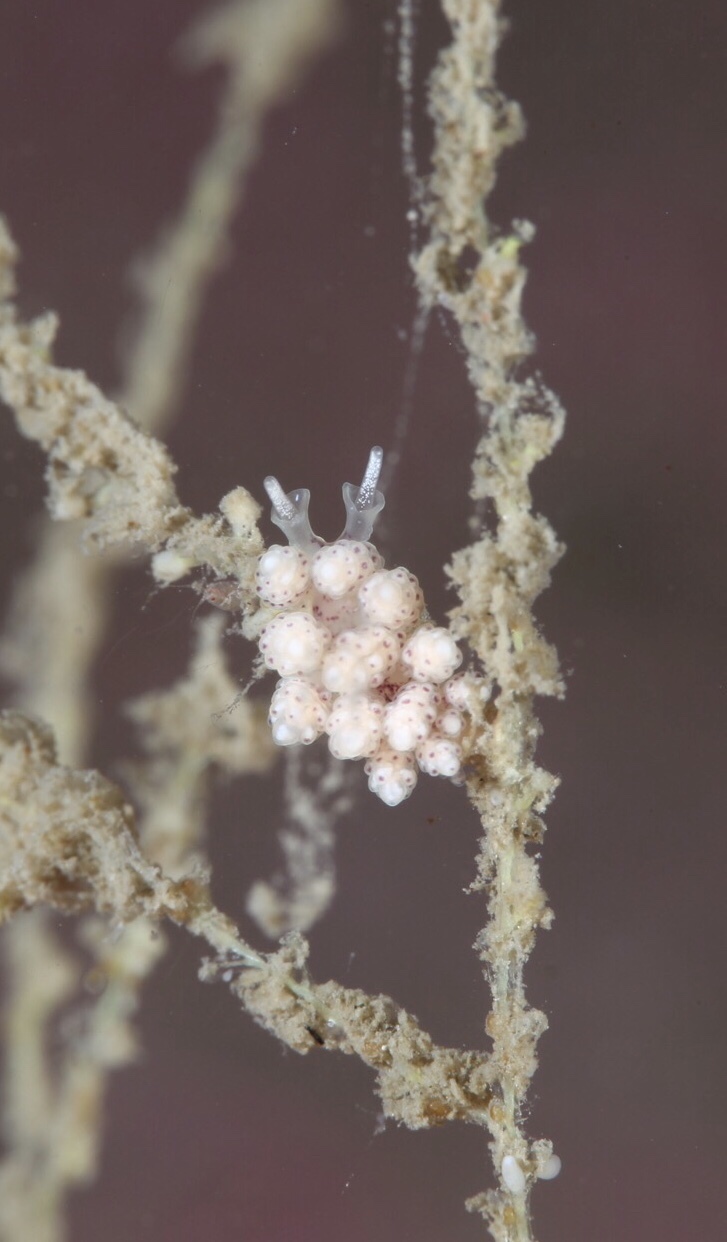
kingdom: Animalia
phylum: Mollusca
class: Gastropoda
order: Nudibranchia
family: Dotidae
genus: Doto
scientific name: Doto dunnei
